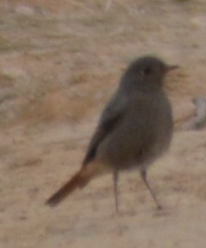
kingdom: Animalia
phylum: Chordata
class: Aves
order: Passeriformes
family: Muscicapidae
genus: Phoenicurus
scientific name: Phoenicurus ochruros
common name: Black redstart
